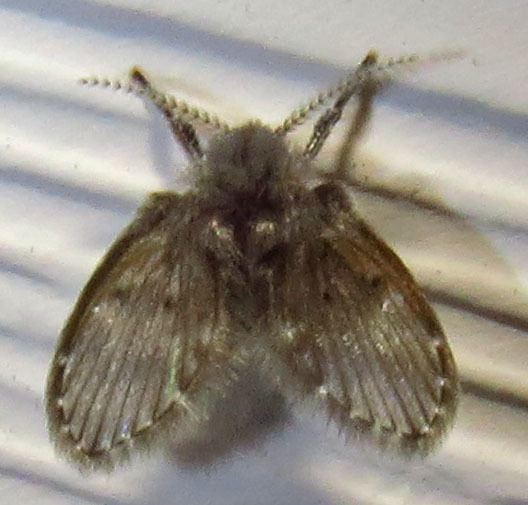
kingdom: Animalia
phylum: Arthropoda
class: Insecta
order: Diptera
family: Psychodidae
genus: Clogmia
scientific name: Clogmia albipunctatus
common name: White-spotted moth fly
